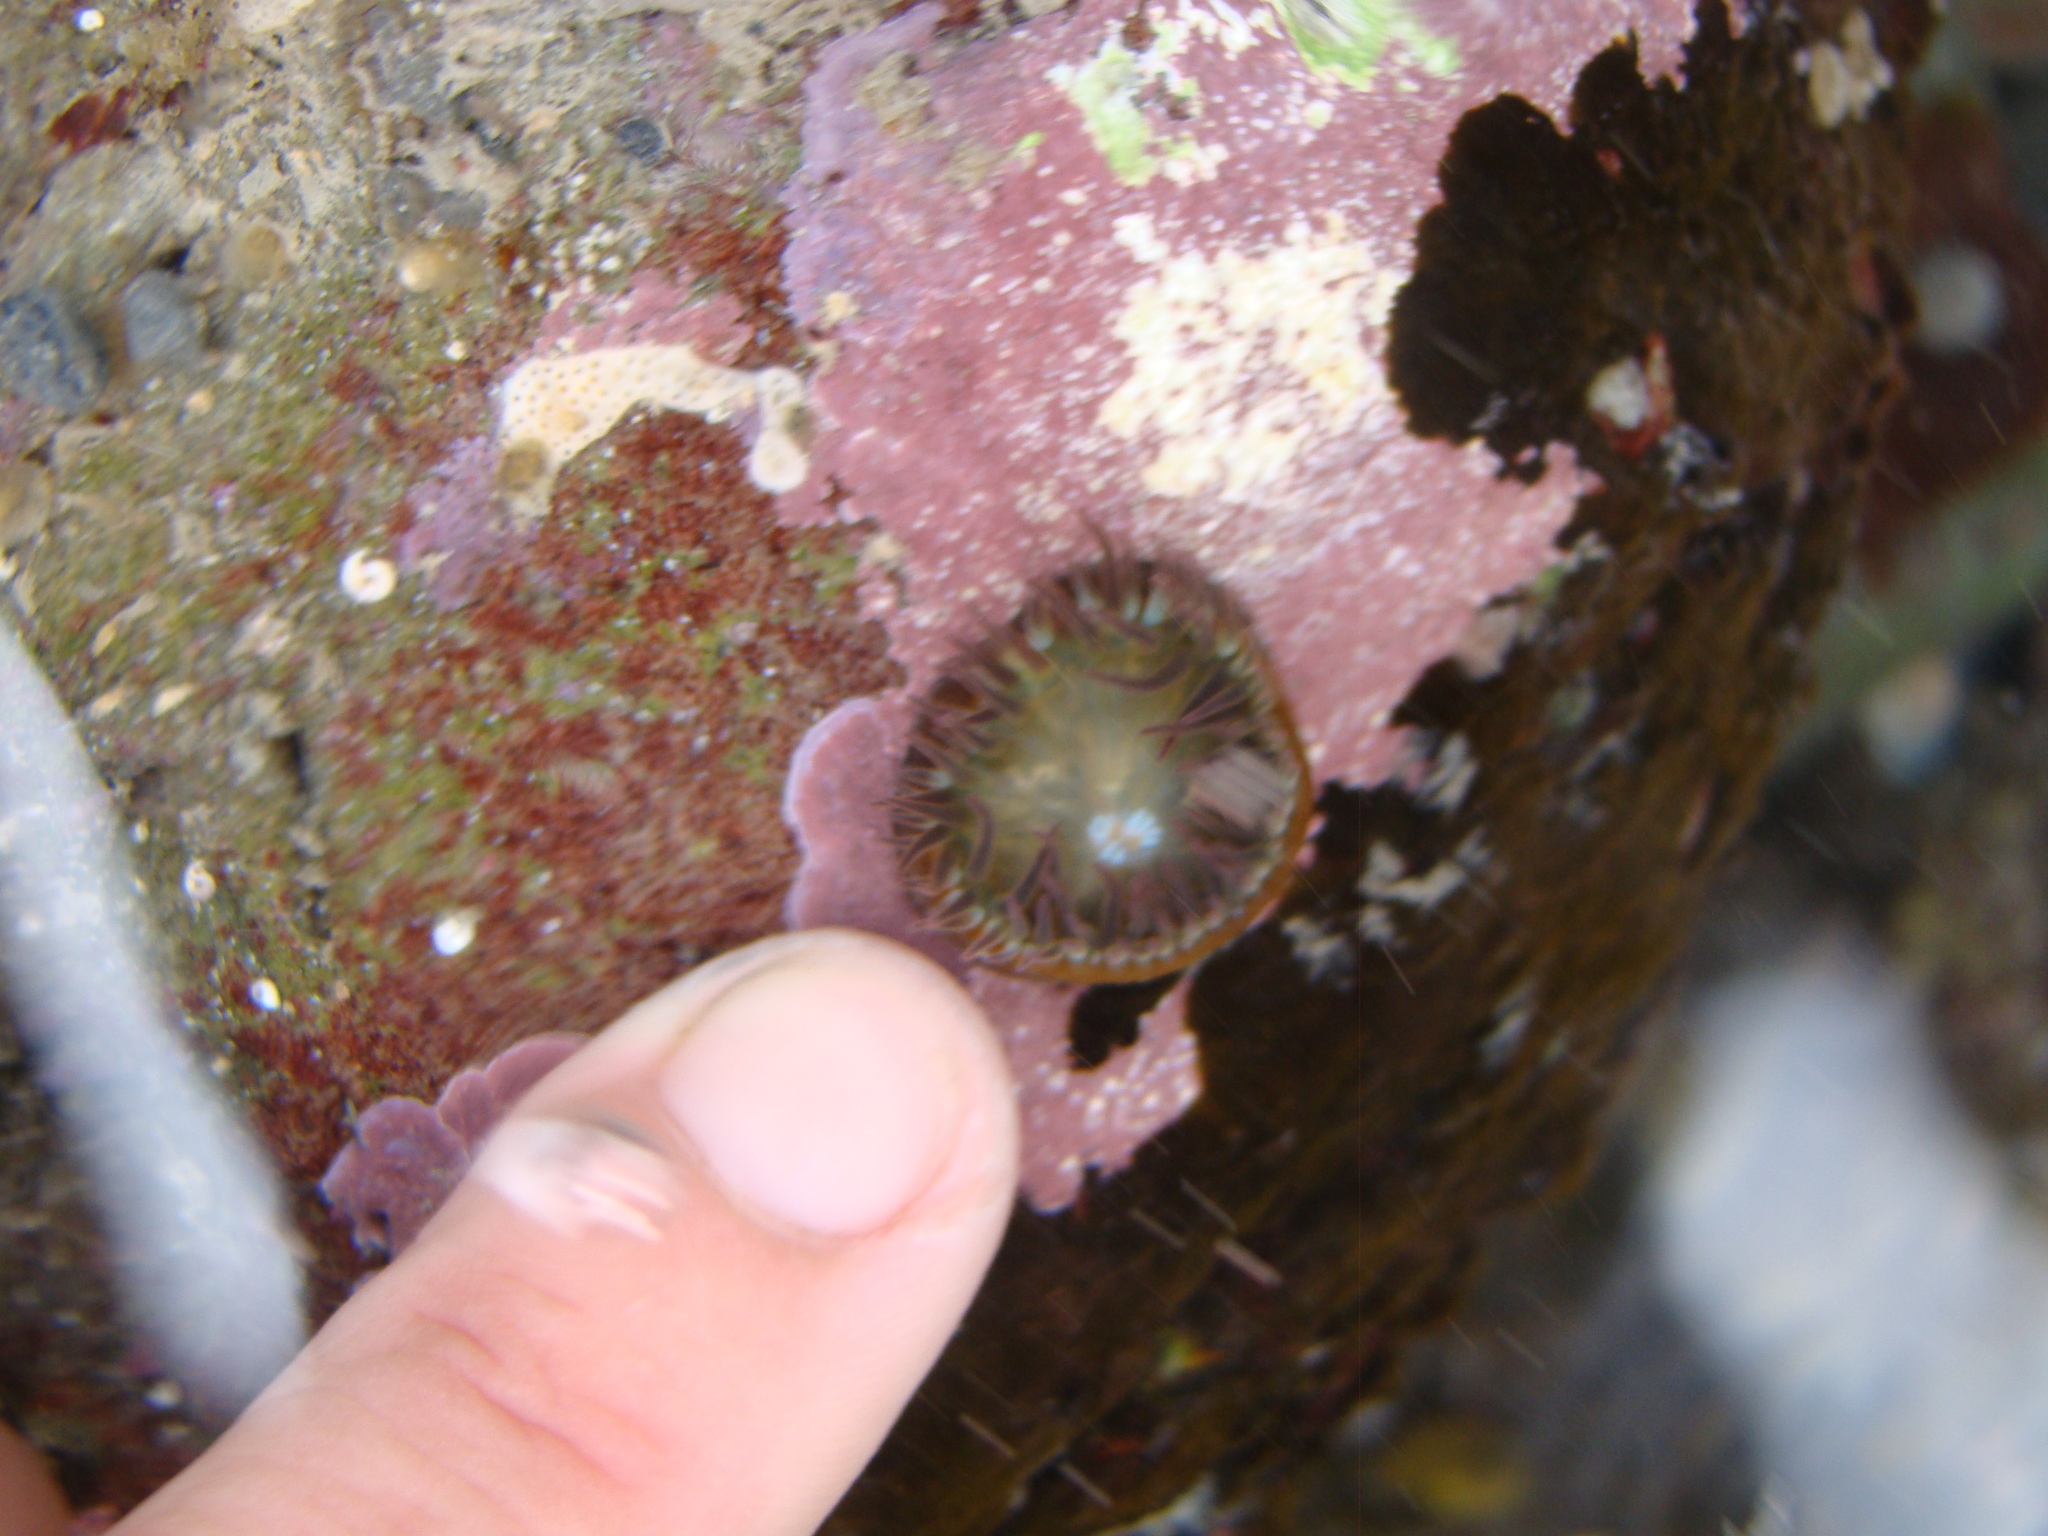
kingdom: Animalia
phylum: Cnidaria
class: Anthozoa
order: Actiniaria
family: Hormathiidae
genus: Handactis
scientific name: Handactis nutrix
